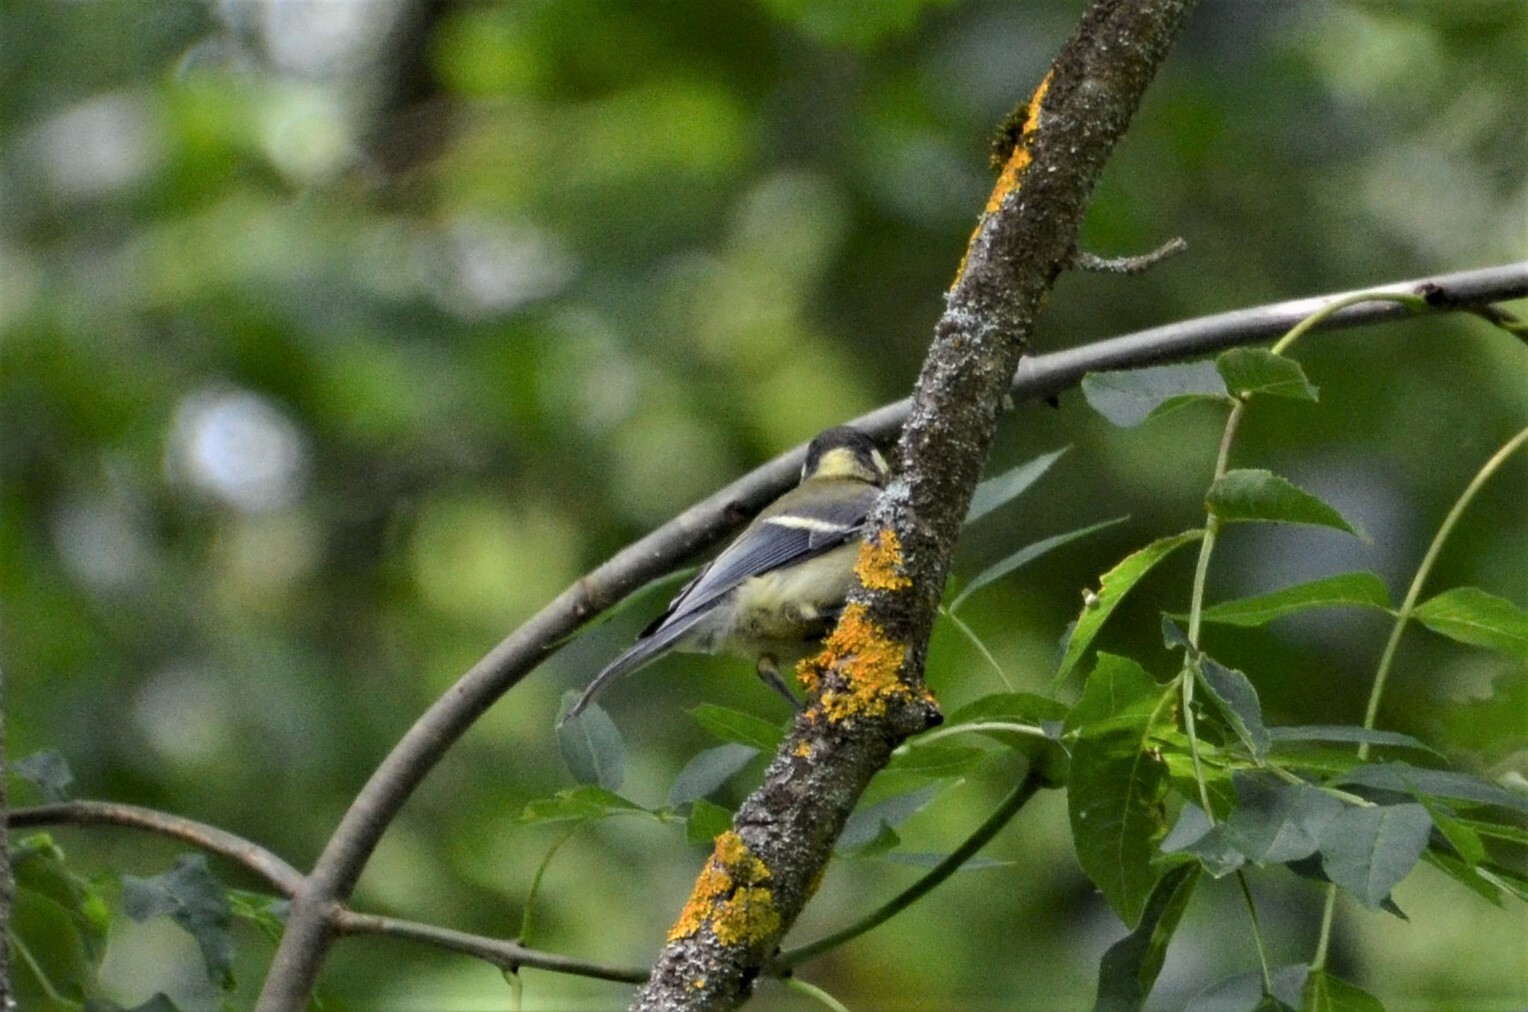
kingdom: Animalia
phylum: Chordata
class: Aves
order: Passeriformes
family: Paridae
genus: Parus
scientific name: Parus major
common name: Great tit
